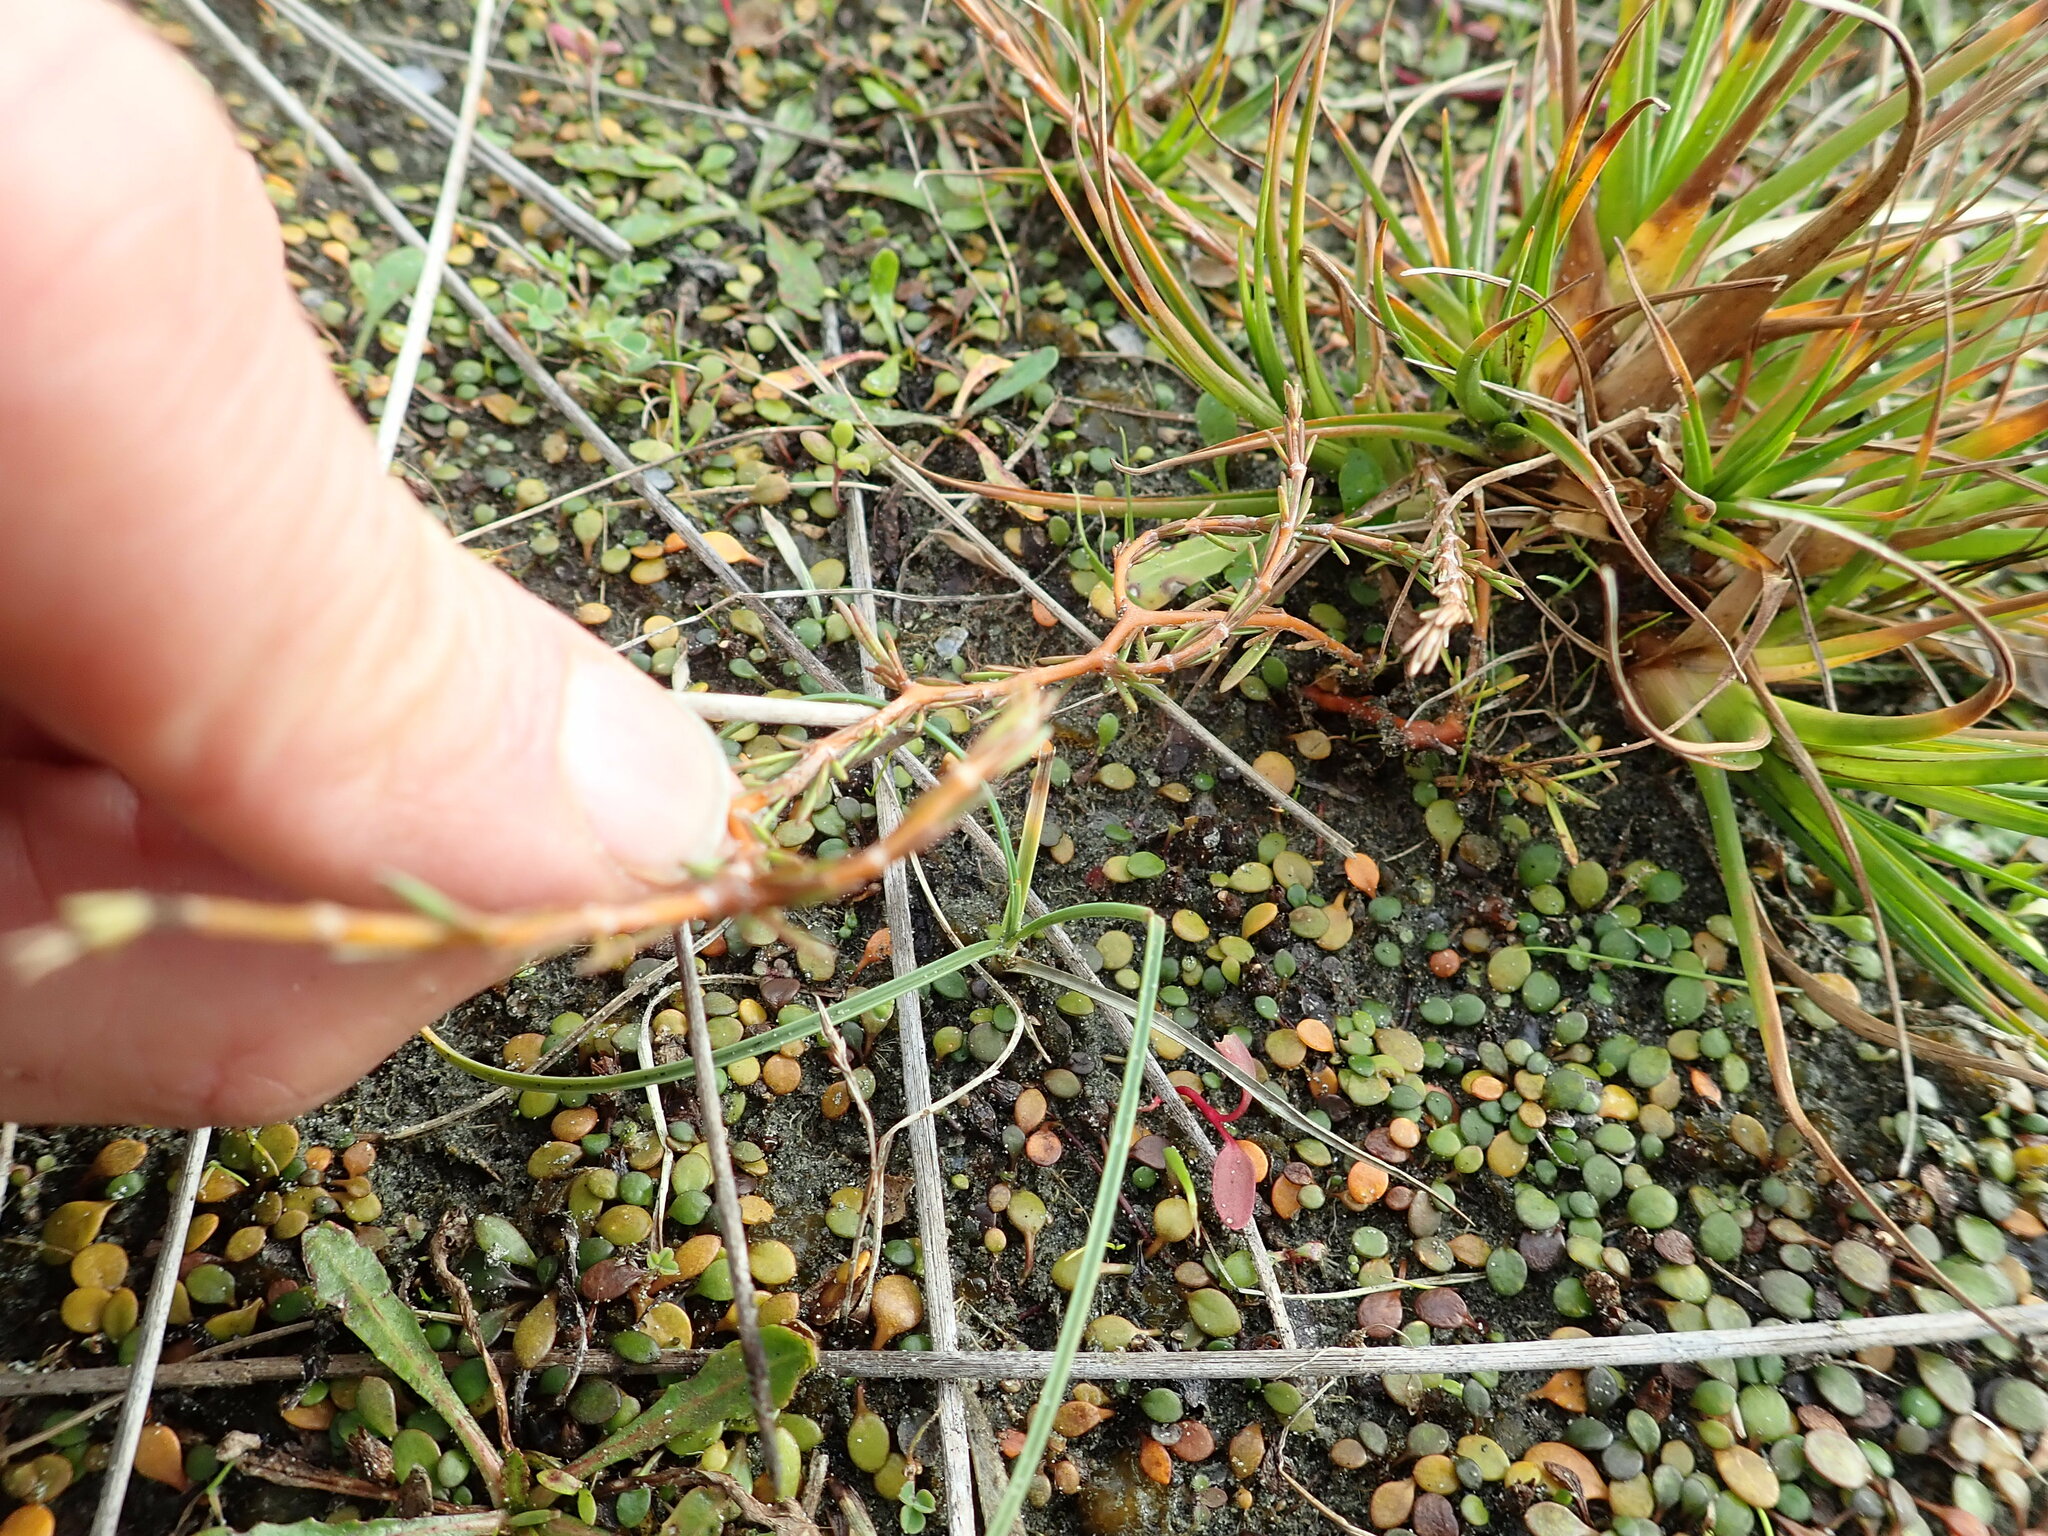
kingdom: Plantae
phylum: Tracheophyta
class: Magnoliopsida
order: Gentianales
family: Rubiaceae
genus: Coprosma
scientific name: Coprosma acerosa
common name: Sand coprosma
